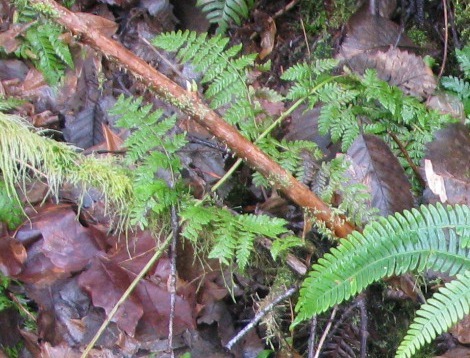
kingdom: Plantae
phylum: Tracheophyta
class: Polypodiopsida
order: Polypodiales
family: Dryopteridaceae
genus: Dryopteris
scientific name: Dryopteris expansa
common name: Northern buckler fern
